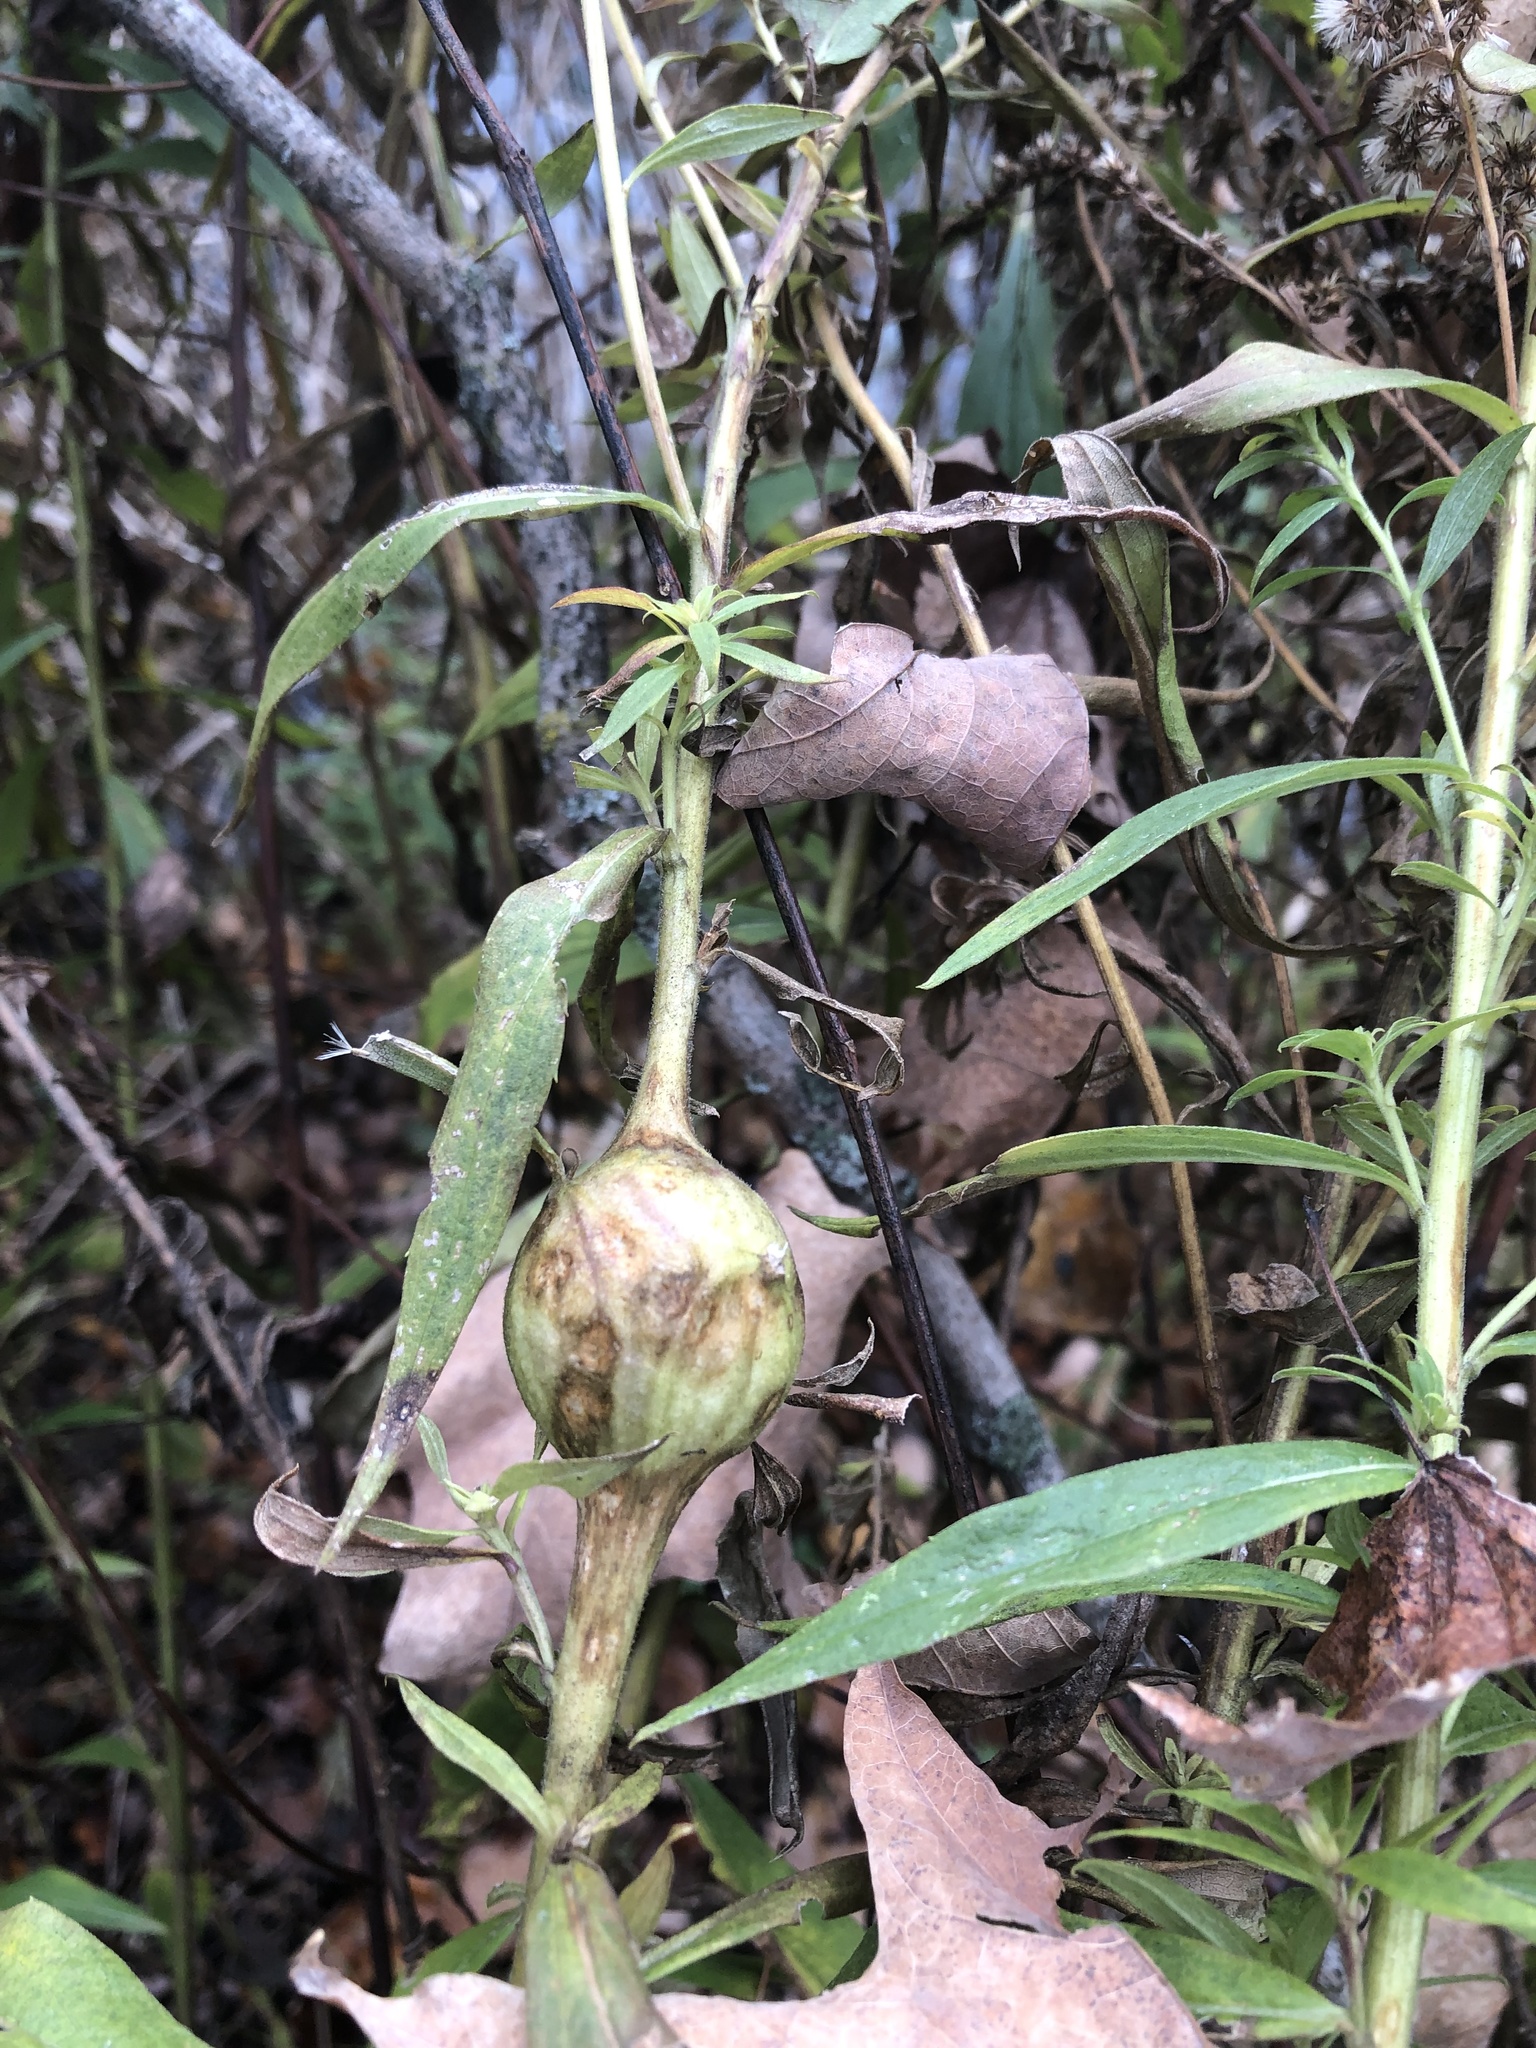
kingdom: Animalia
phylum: Arthropoda
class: Insecta
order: Diptera
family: Tephritidae
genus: Eurosta
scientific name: Eurosta solidaginis
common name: Goldenrod gall fly
